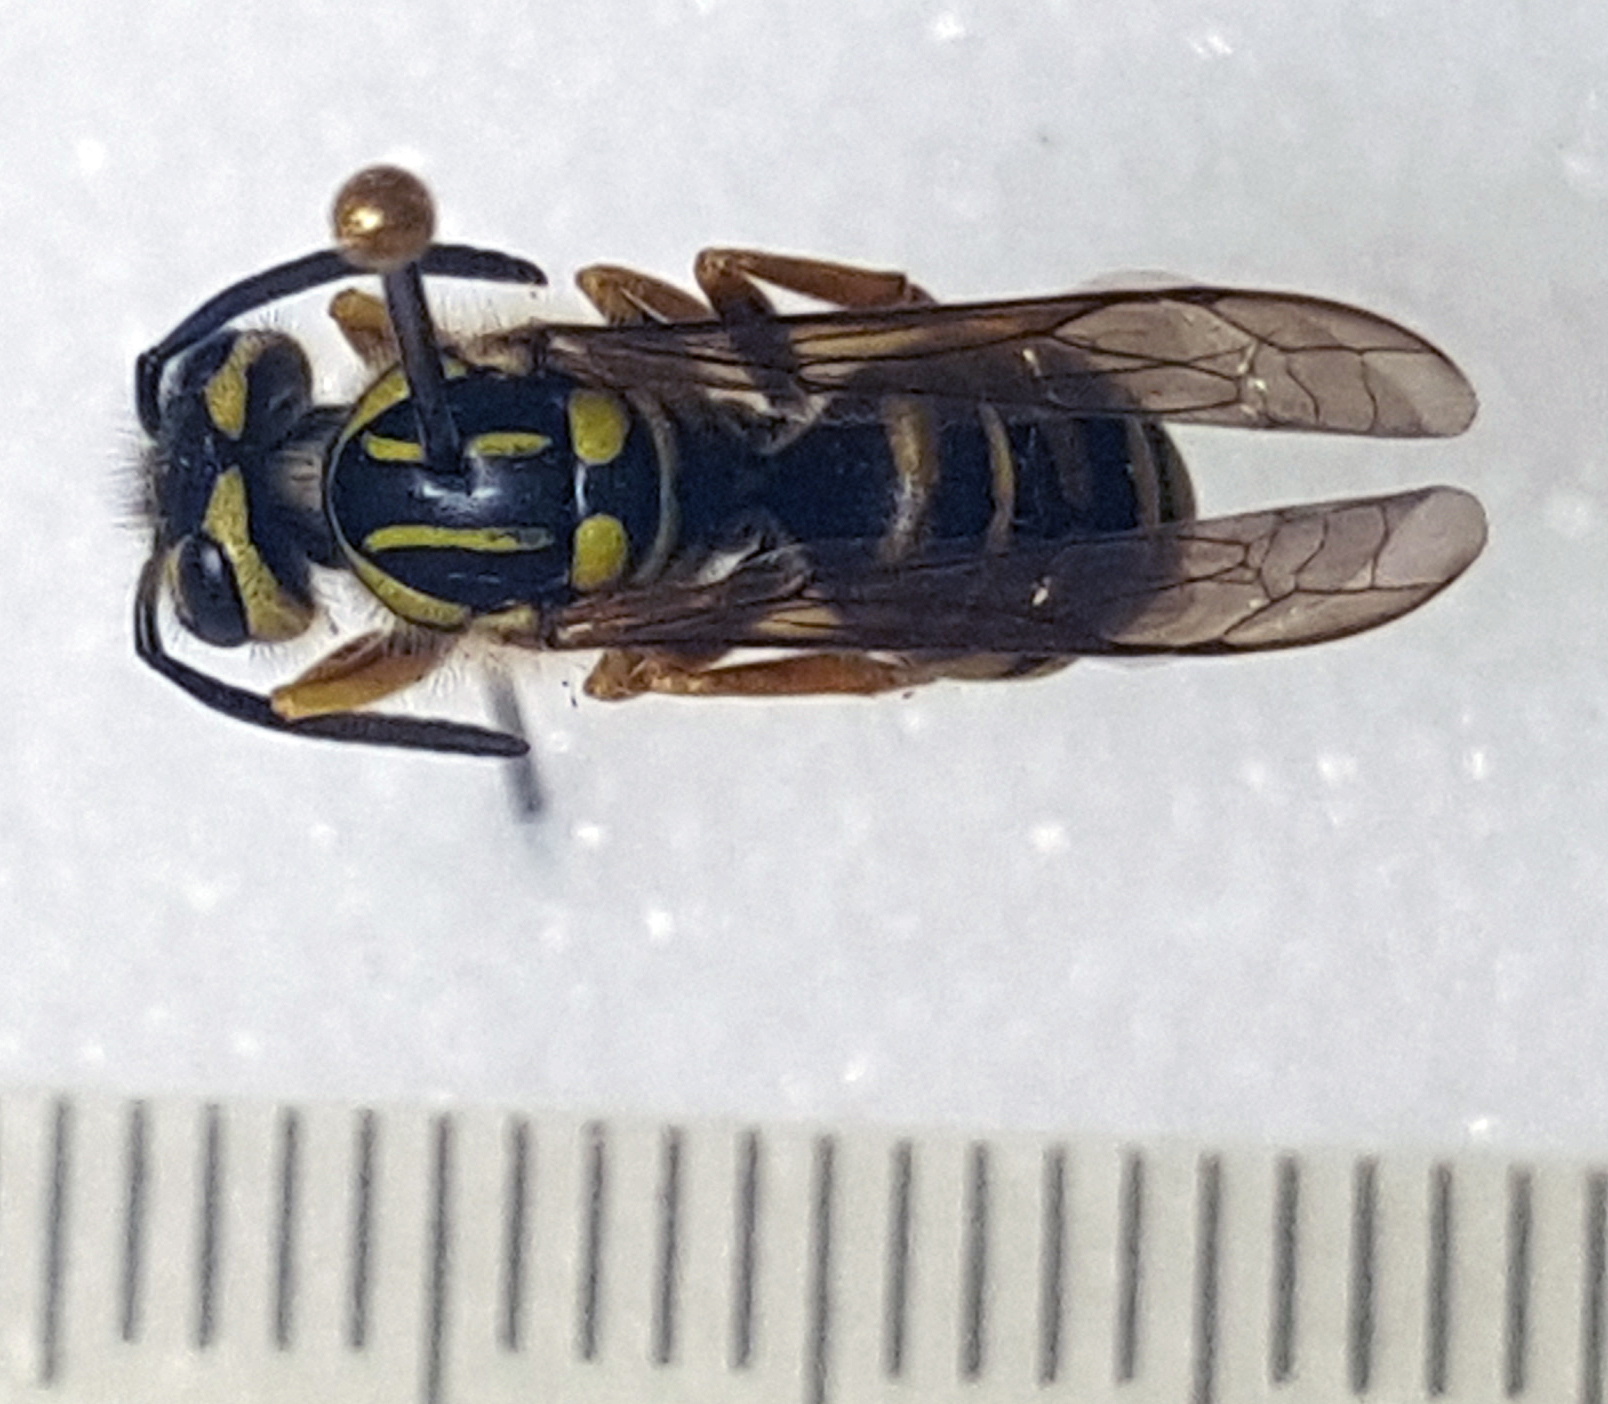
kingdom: Animalia
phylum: Arthropoda
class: Insecta
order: Hymenoptera
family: Vespidae
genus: Vespula
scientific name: Vespula squamosa
